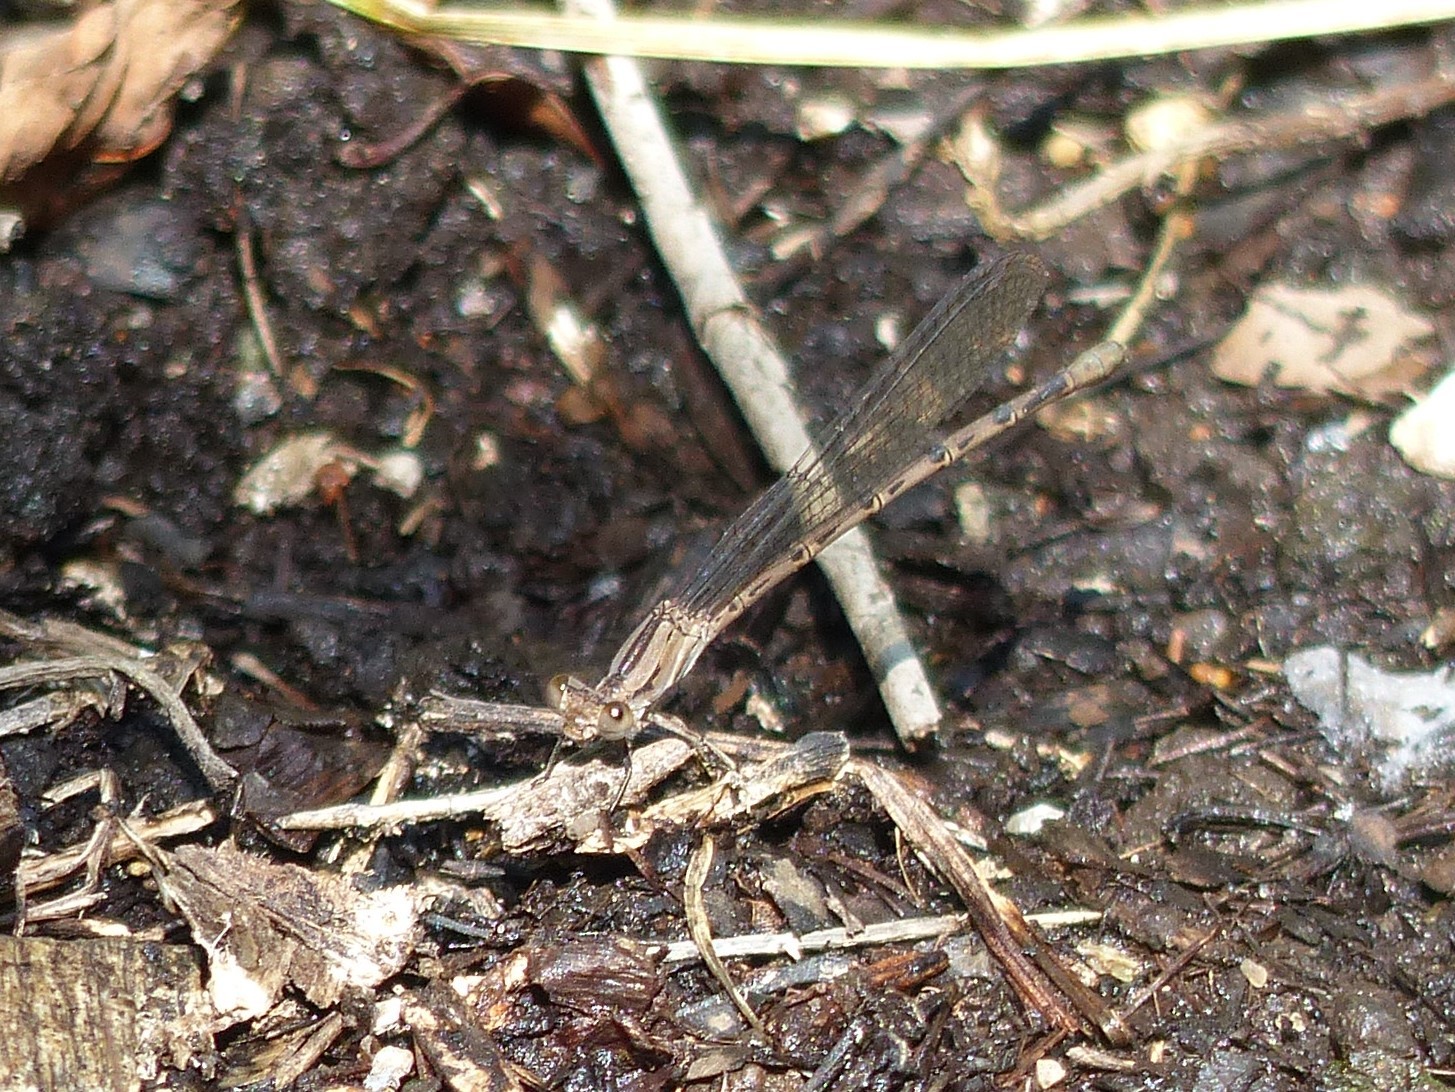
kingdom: Animalia
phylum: Arthropoda
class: Insecta
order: Odonata
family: Coenagrionidae
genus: Argia
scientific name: Argia funebris
